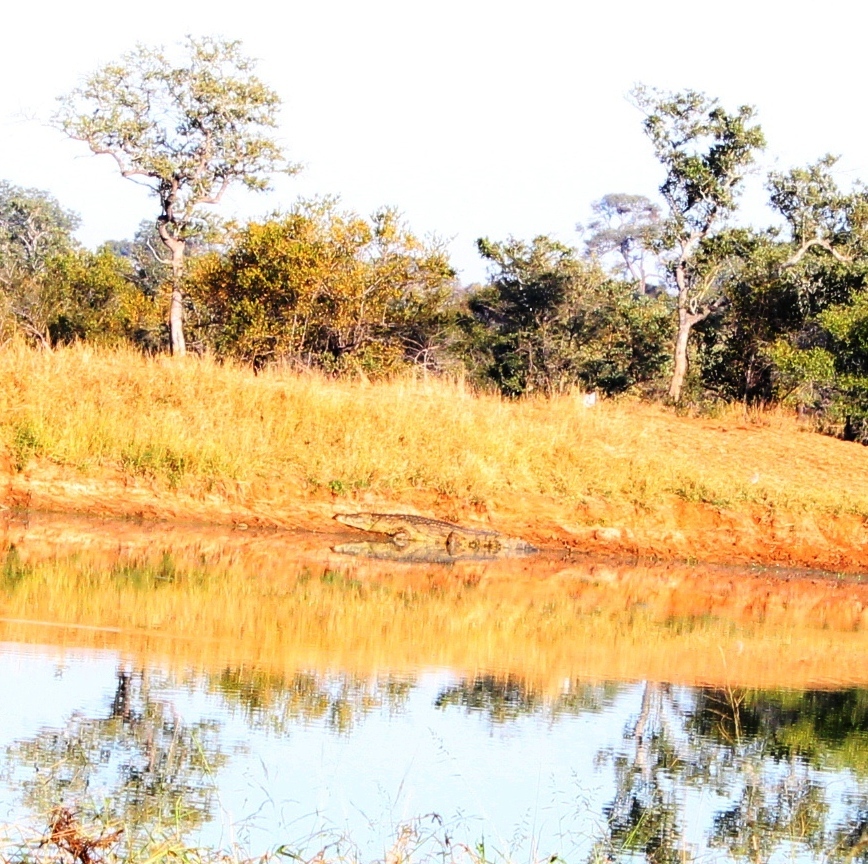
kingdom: Animalia
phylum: Chordata
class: Crocodylia
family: Crocodylidae
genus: Crocodylus
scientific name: Crocodylus niloticus
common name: Nile crocodile
